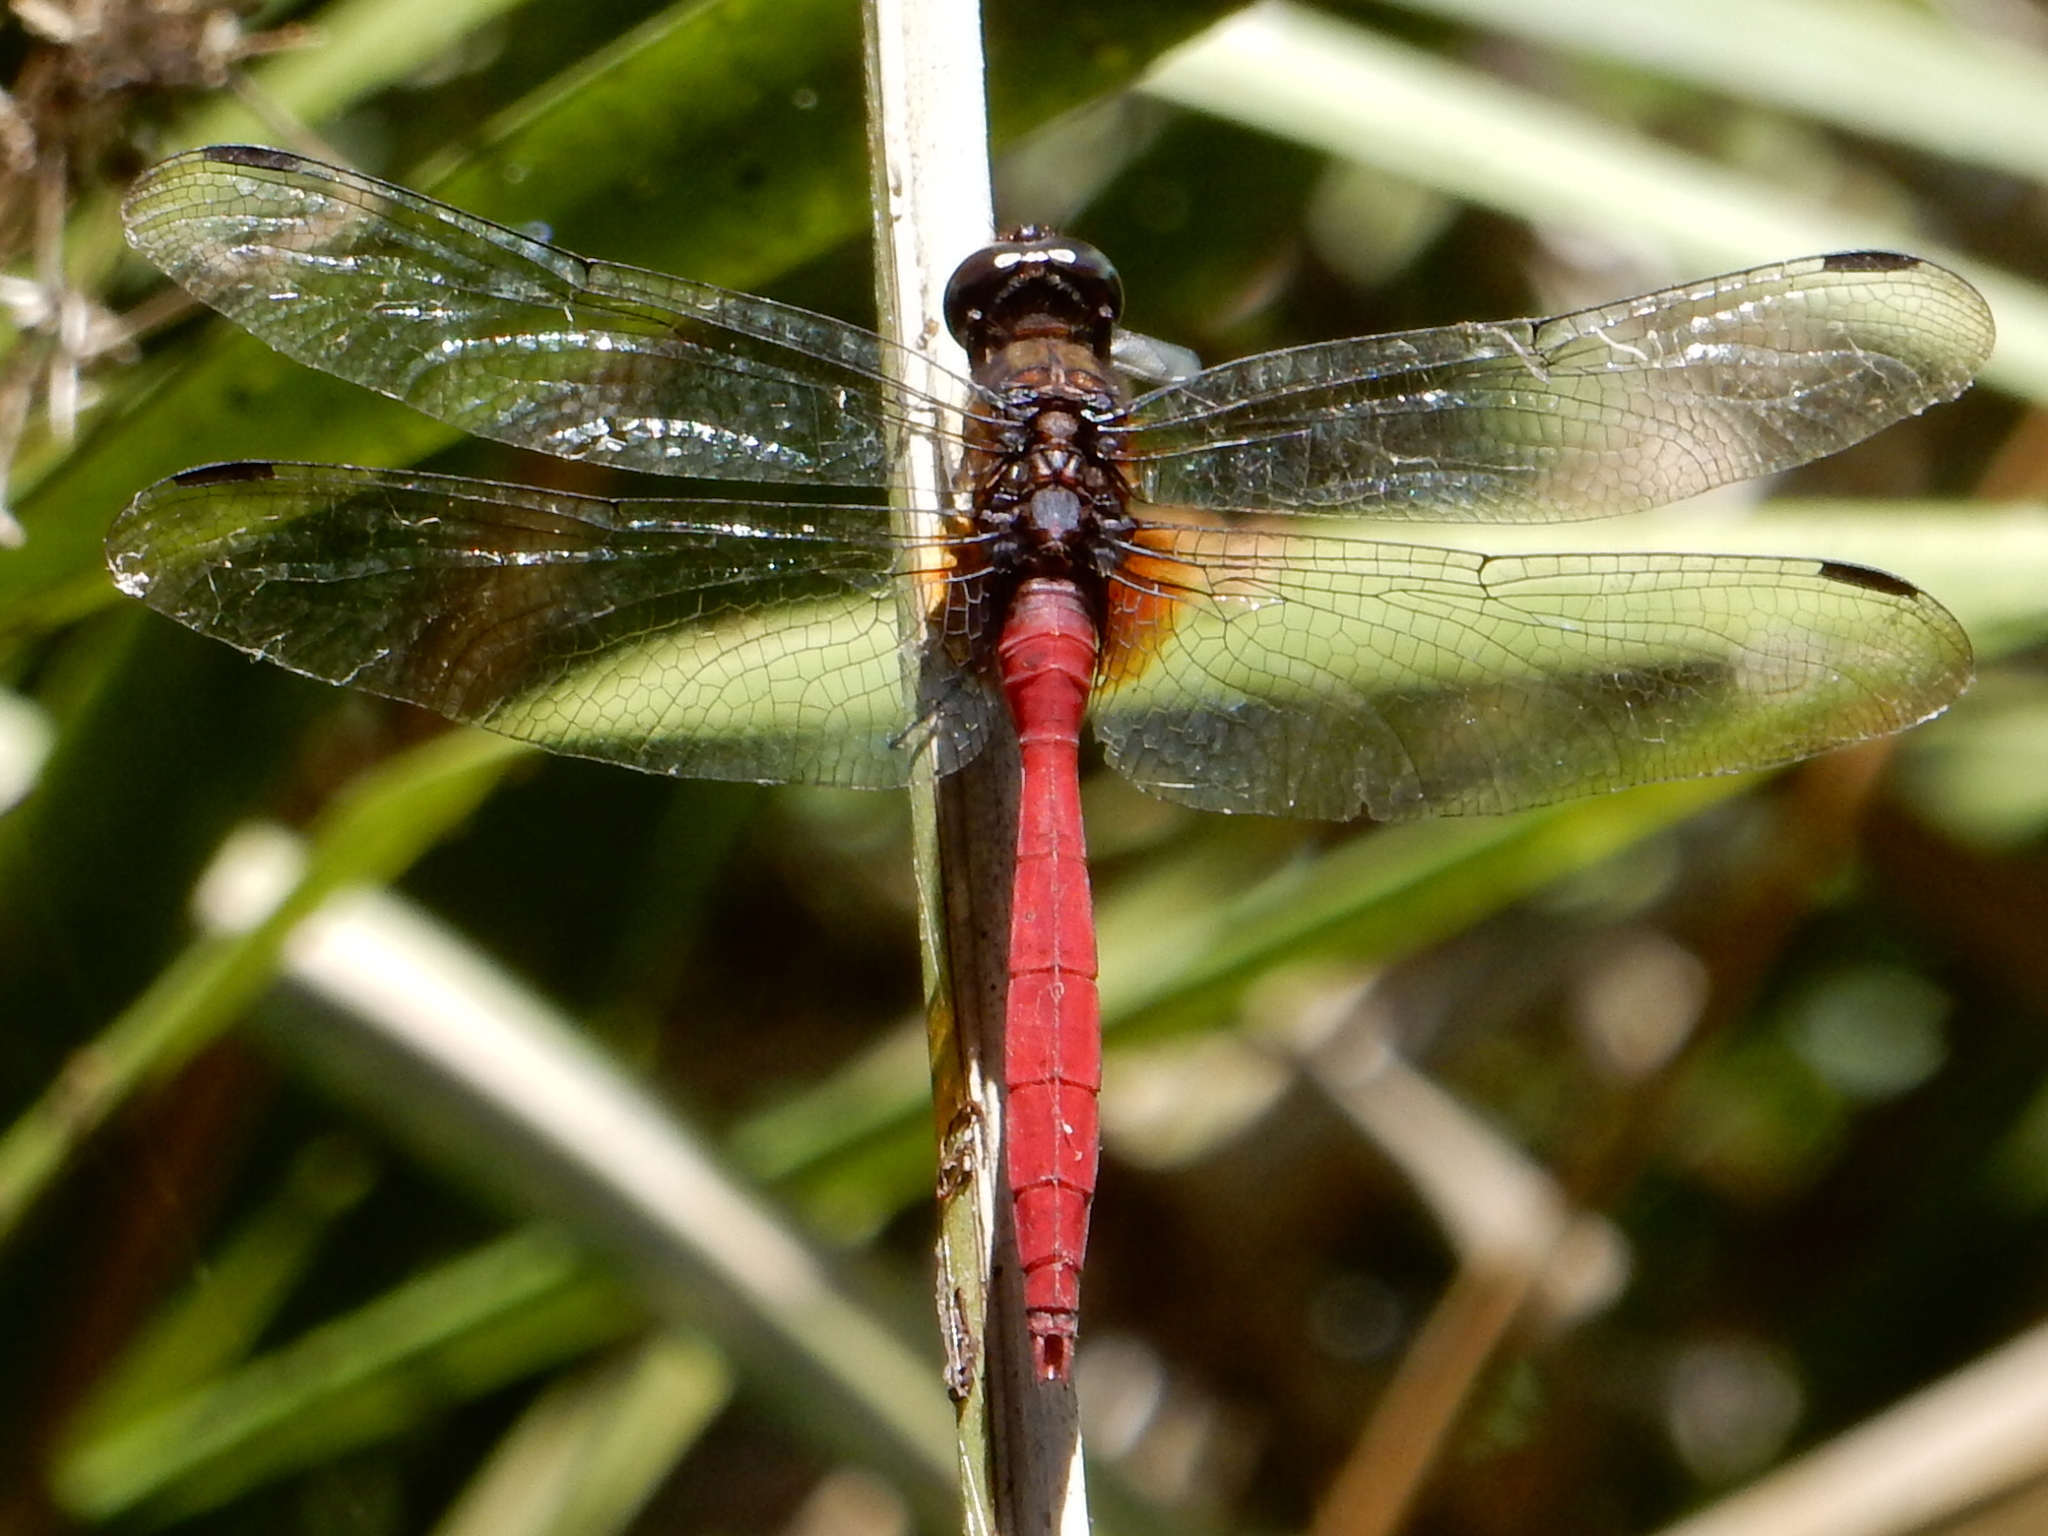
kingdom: Animalia
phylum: Arthropoda
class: Insecta
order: Odonata
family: Libellulidae
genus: Orthetrum
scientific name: Orthetrum villosovittatum
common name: Firery skimmer
